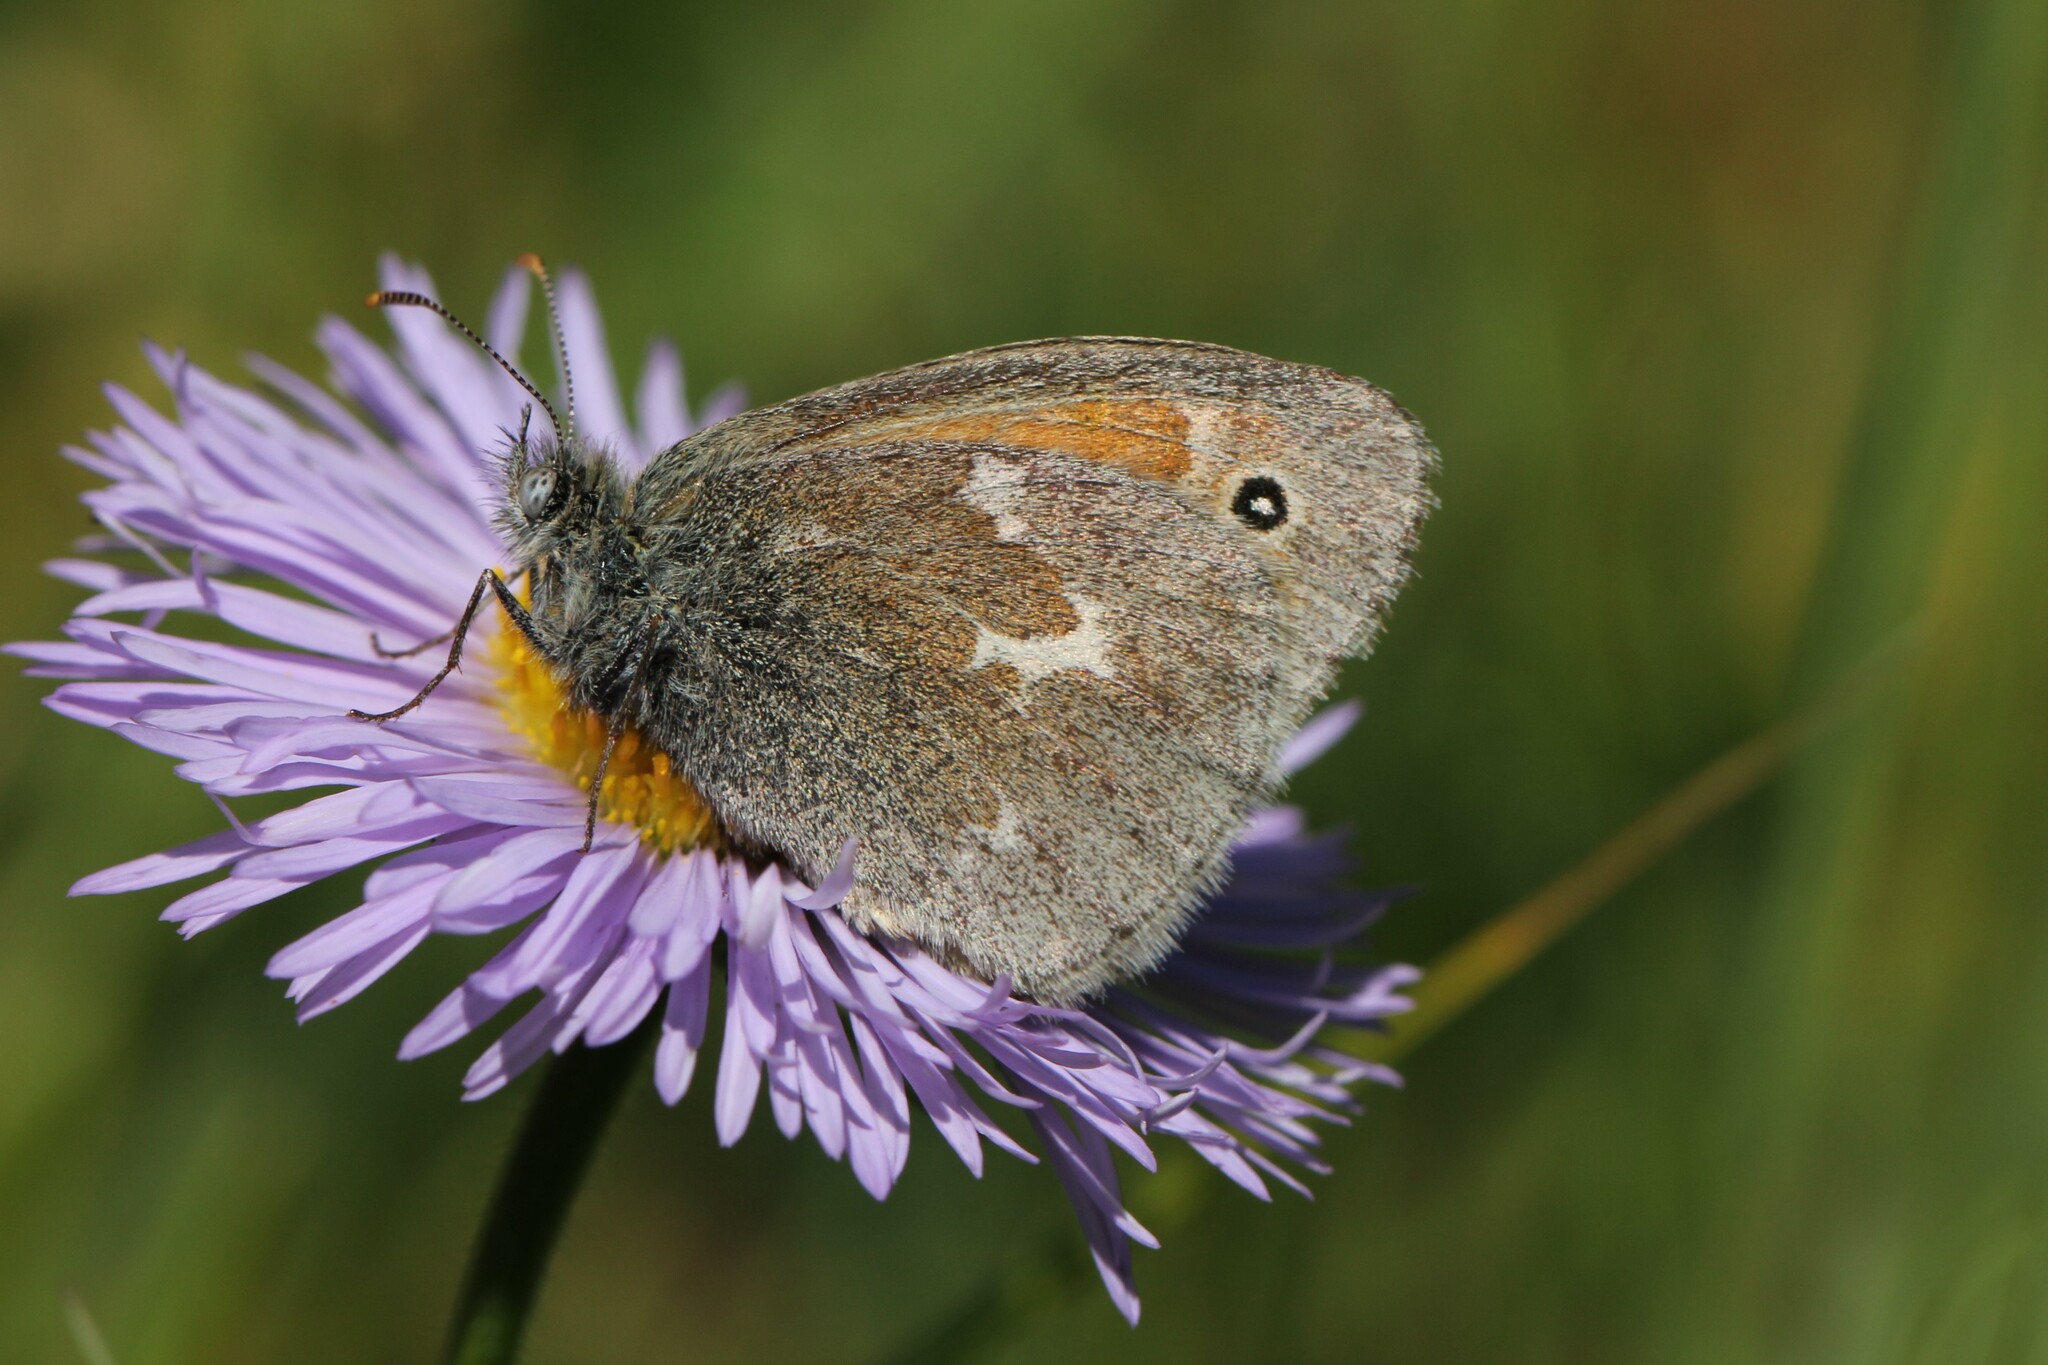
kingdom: Animalia
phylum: Arthropoda
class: Insecta
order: Lepidoptera
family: Nymphalidae
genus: Coenonympha
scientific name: Coenonympha california
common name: Common ringlet
